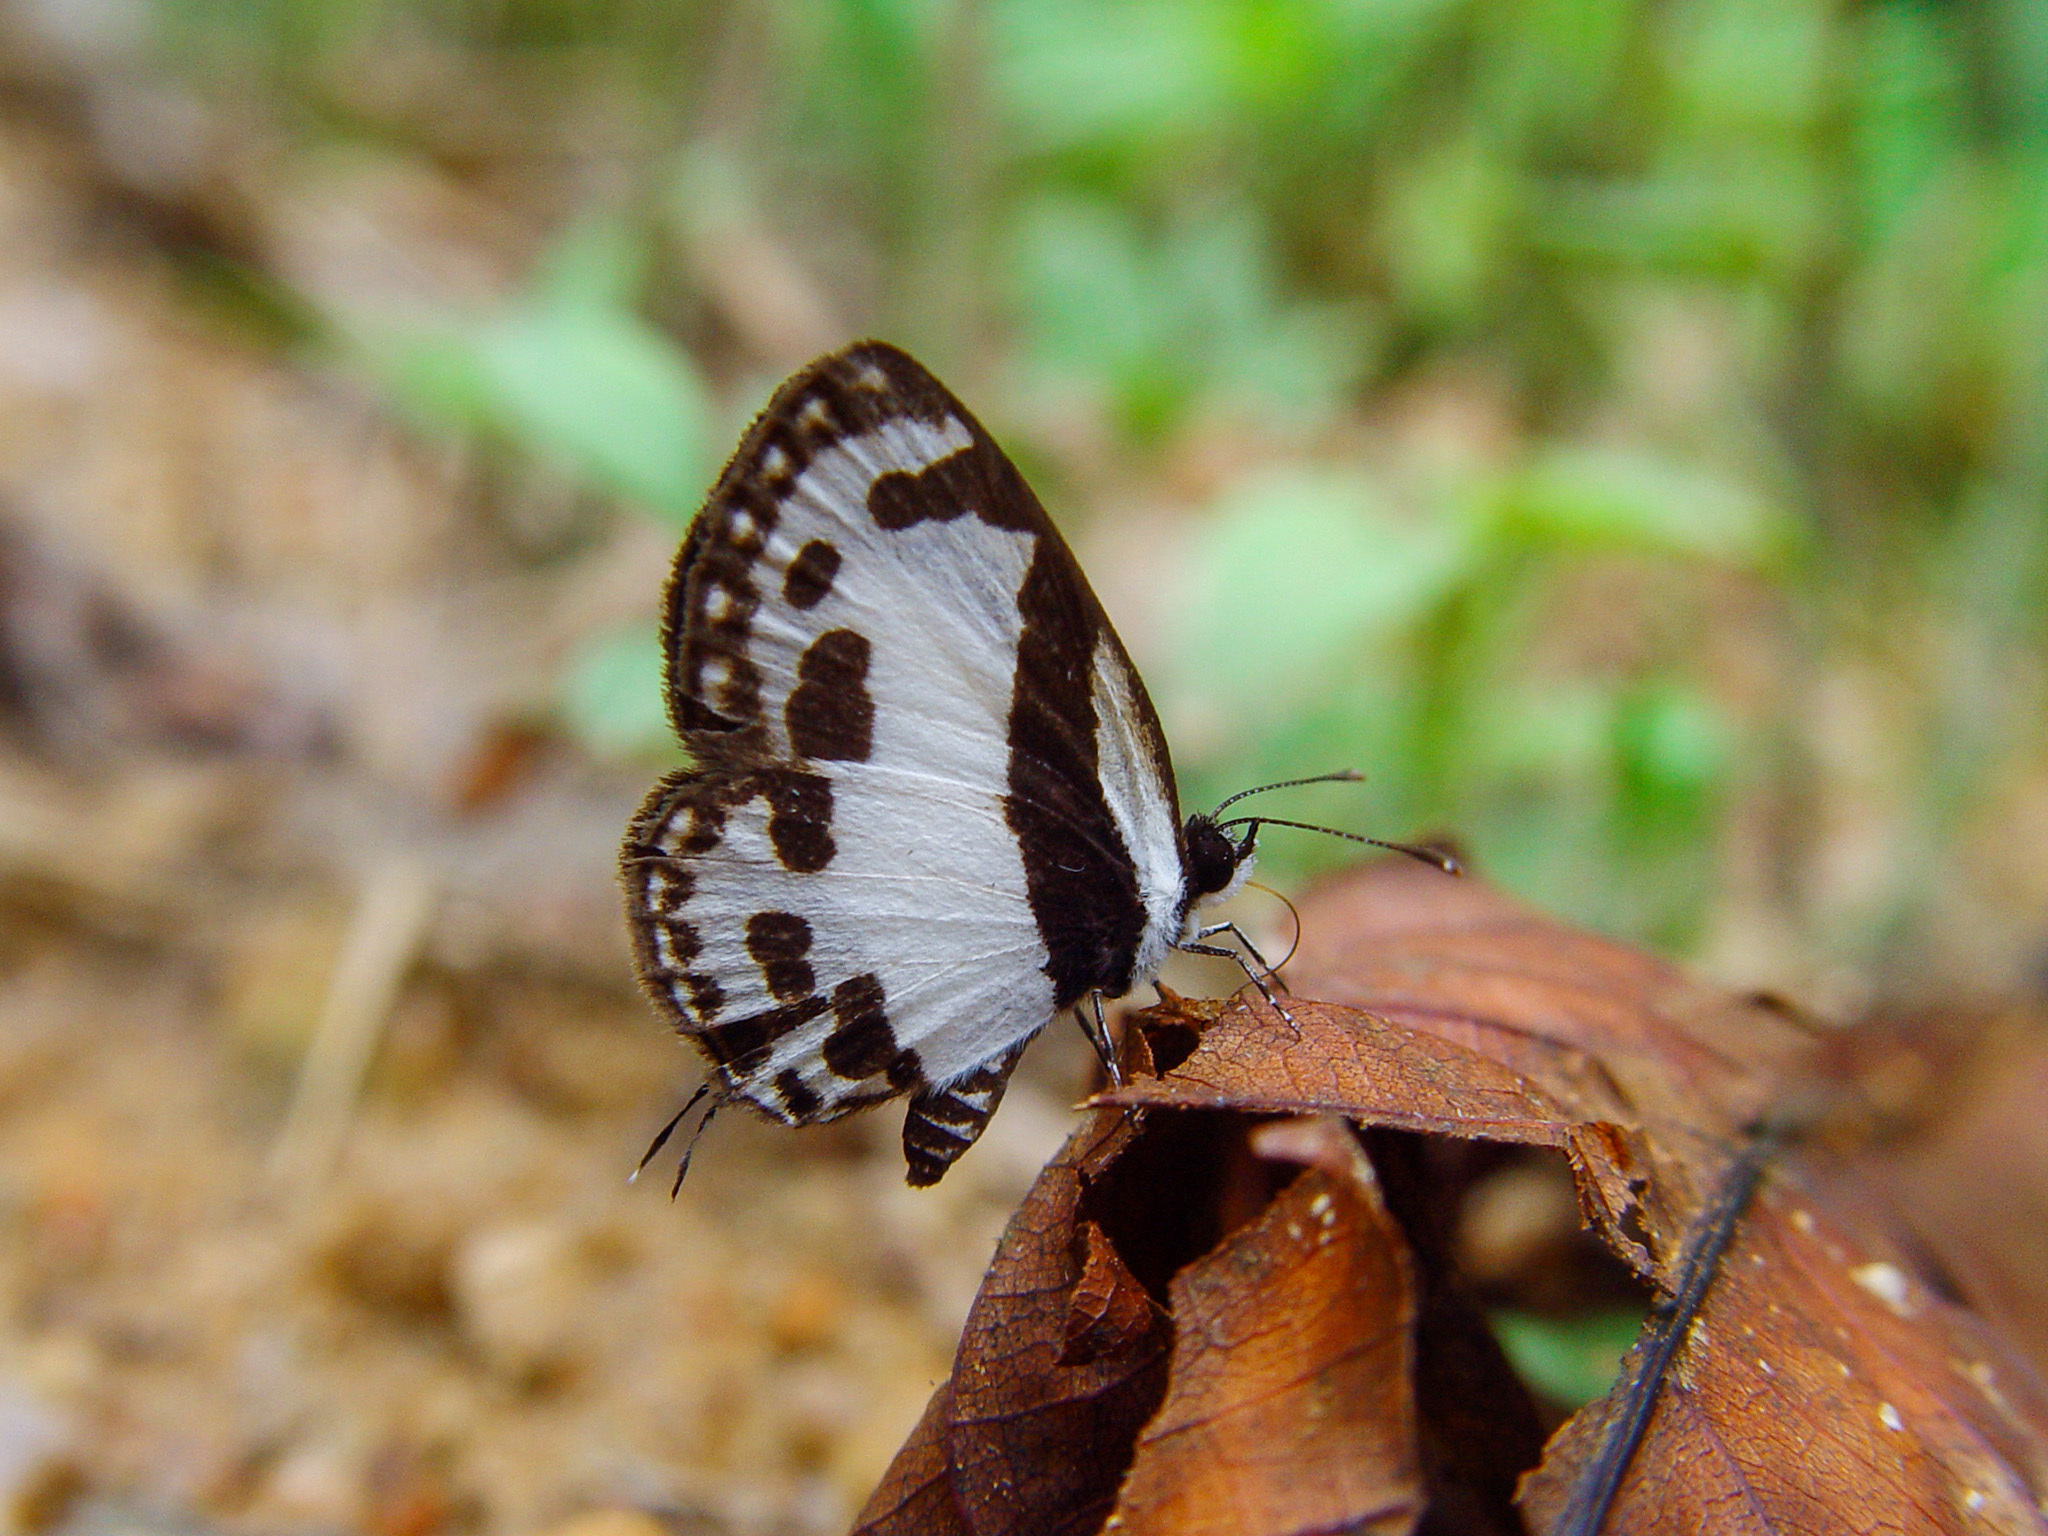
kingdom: Animalia
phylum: Arthropoda
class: Insecta
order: Lepidoptera
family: Lycaenidae
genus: Caleta
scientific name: Caleta roxus
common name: Straight pierrot
